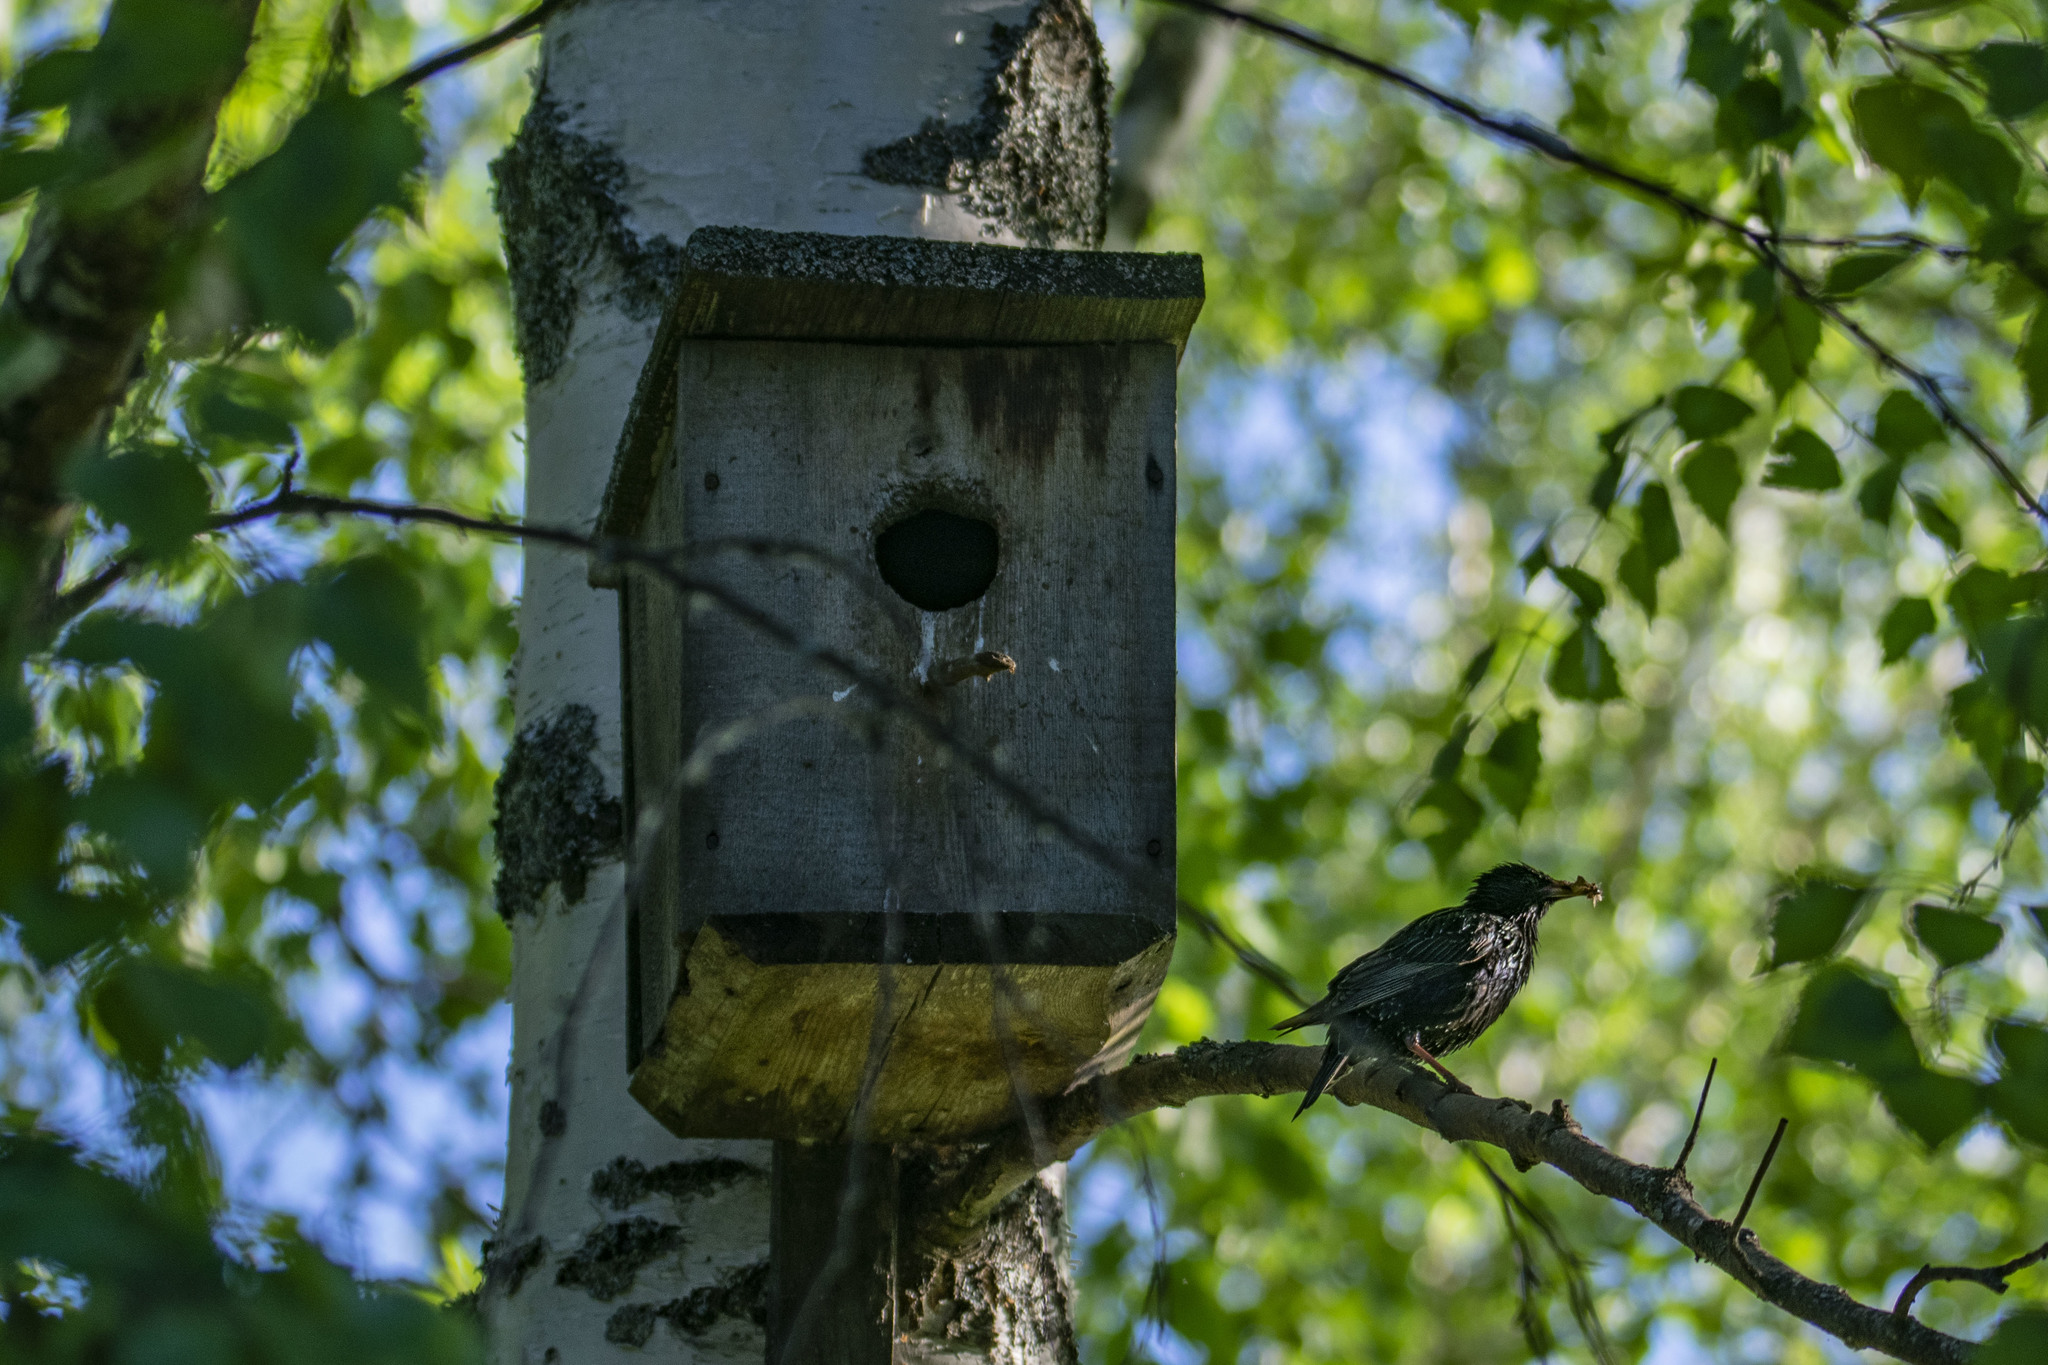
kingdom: Animalia
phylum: Chordata
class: Aves
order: Passeriformes
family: Sturnidae
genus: Sturnus
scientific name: Sturnus vulgaris
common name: Common starling
